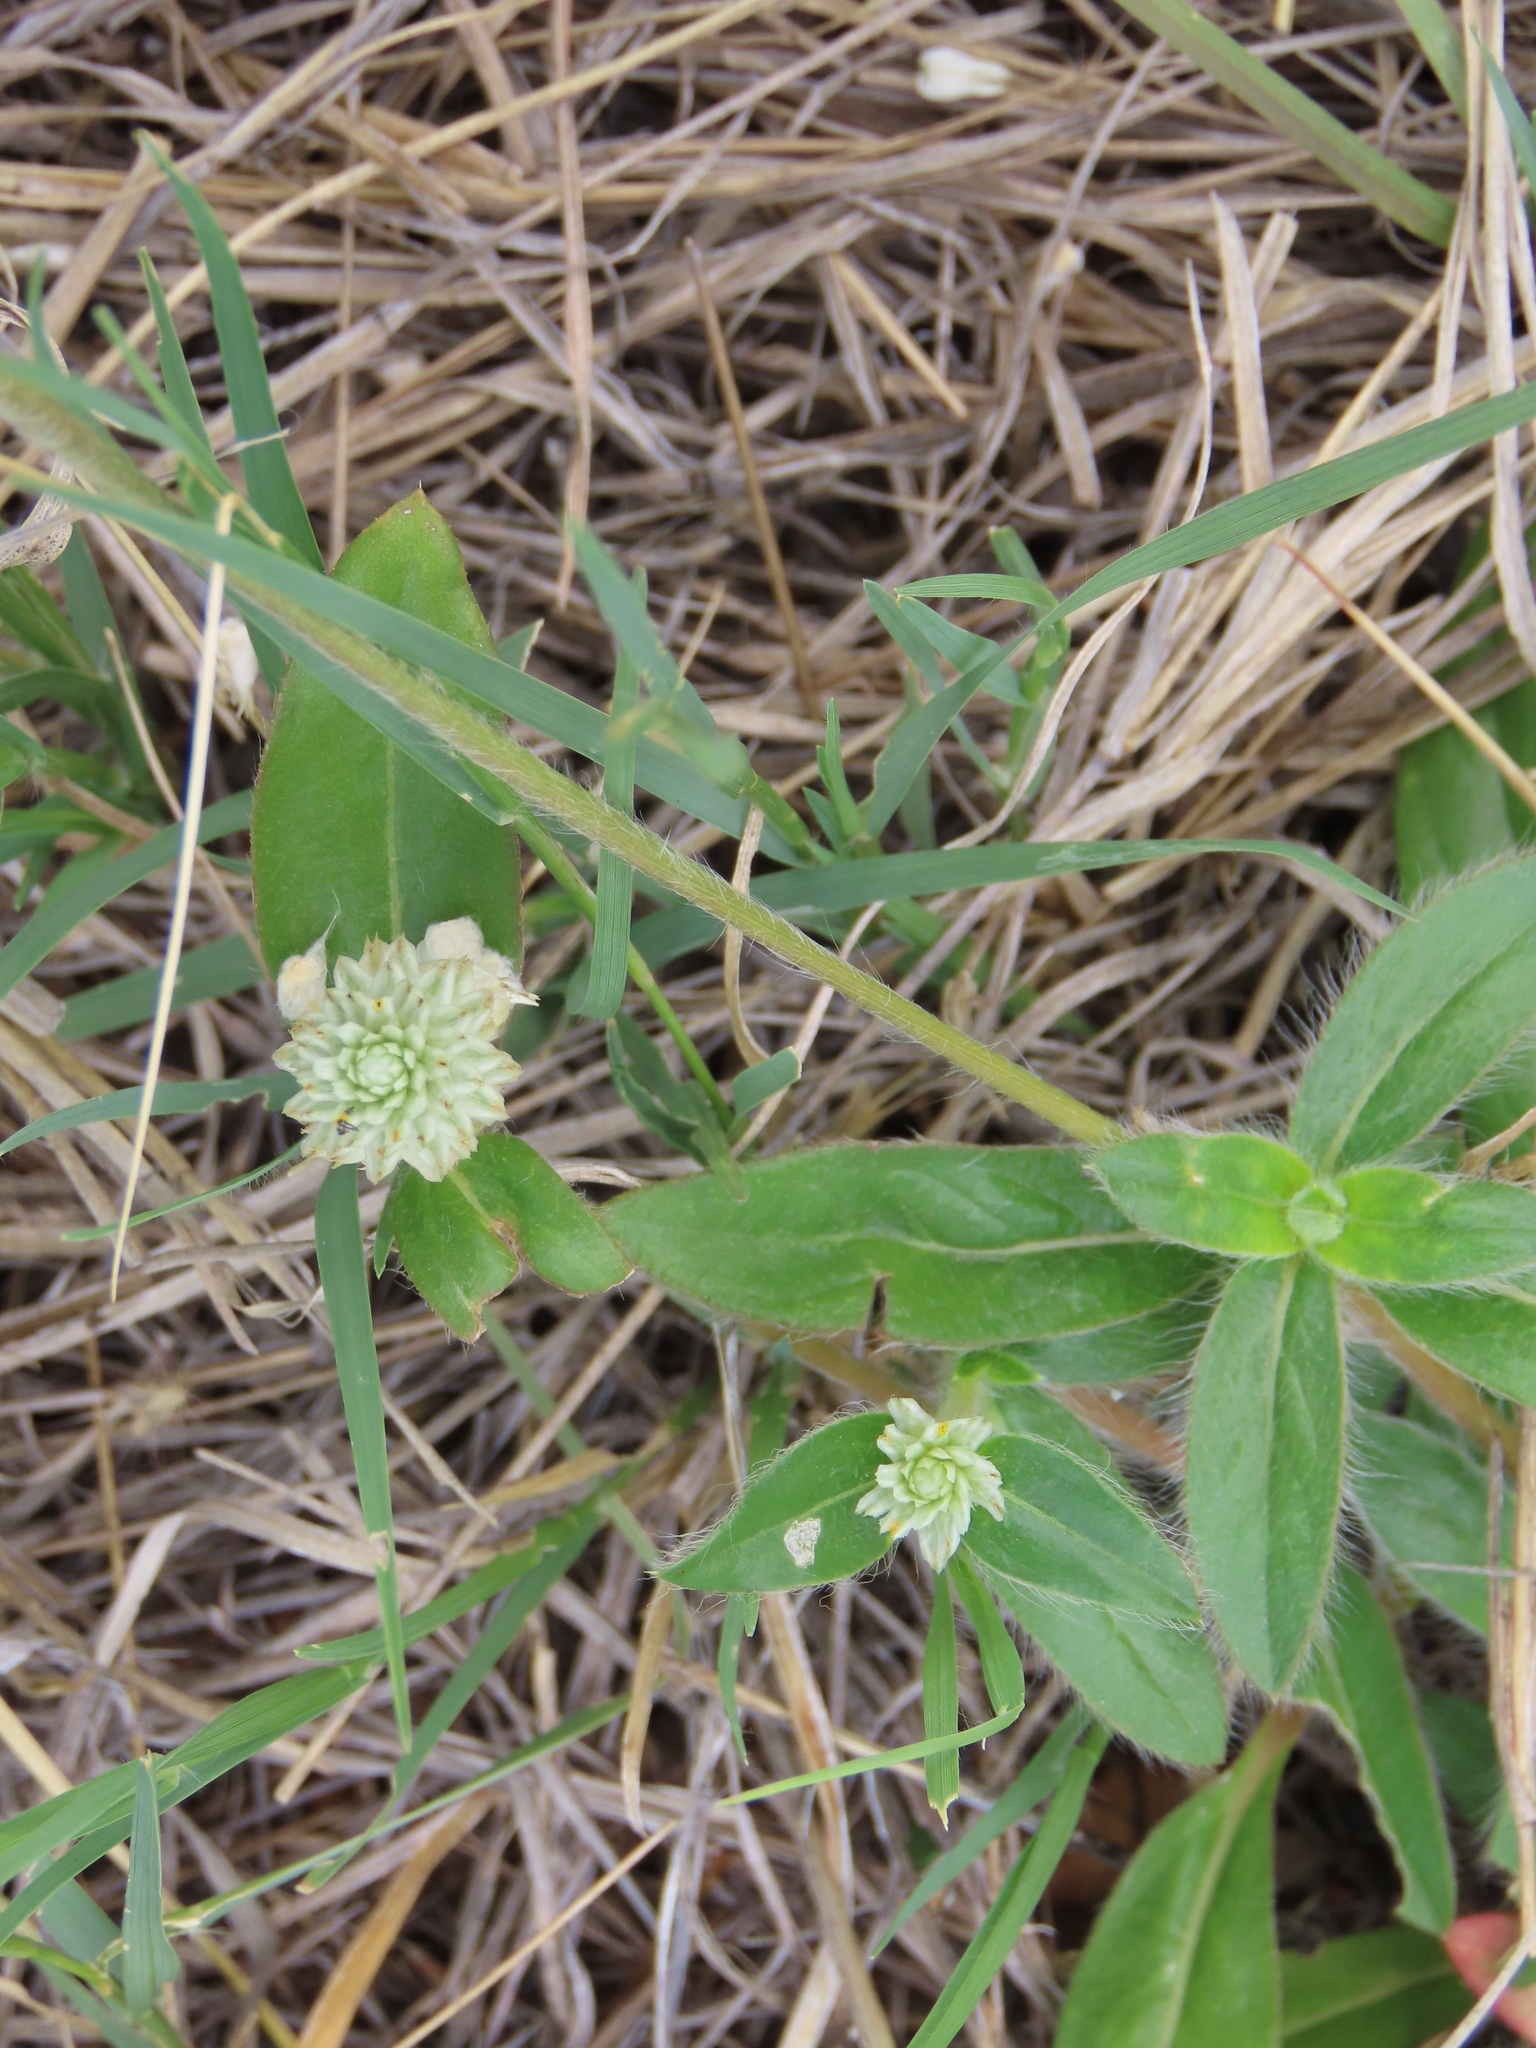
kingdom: Plantae
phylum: Tracheophyta
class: Magnoliopsida
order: Caryophyllales
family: Amaranthaceae
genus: Gomphrena
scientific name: Gomphrena celosioides
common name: Gomphrena-weed
